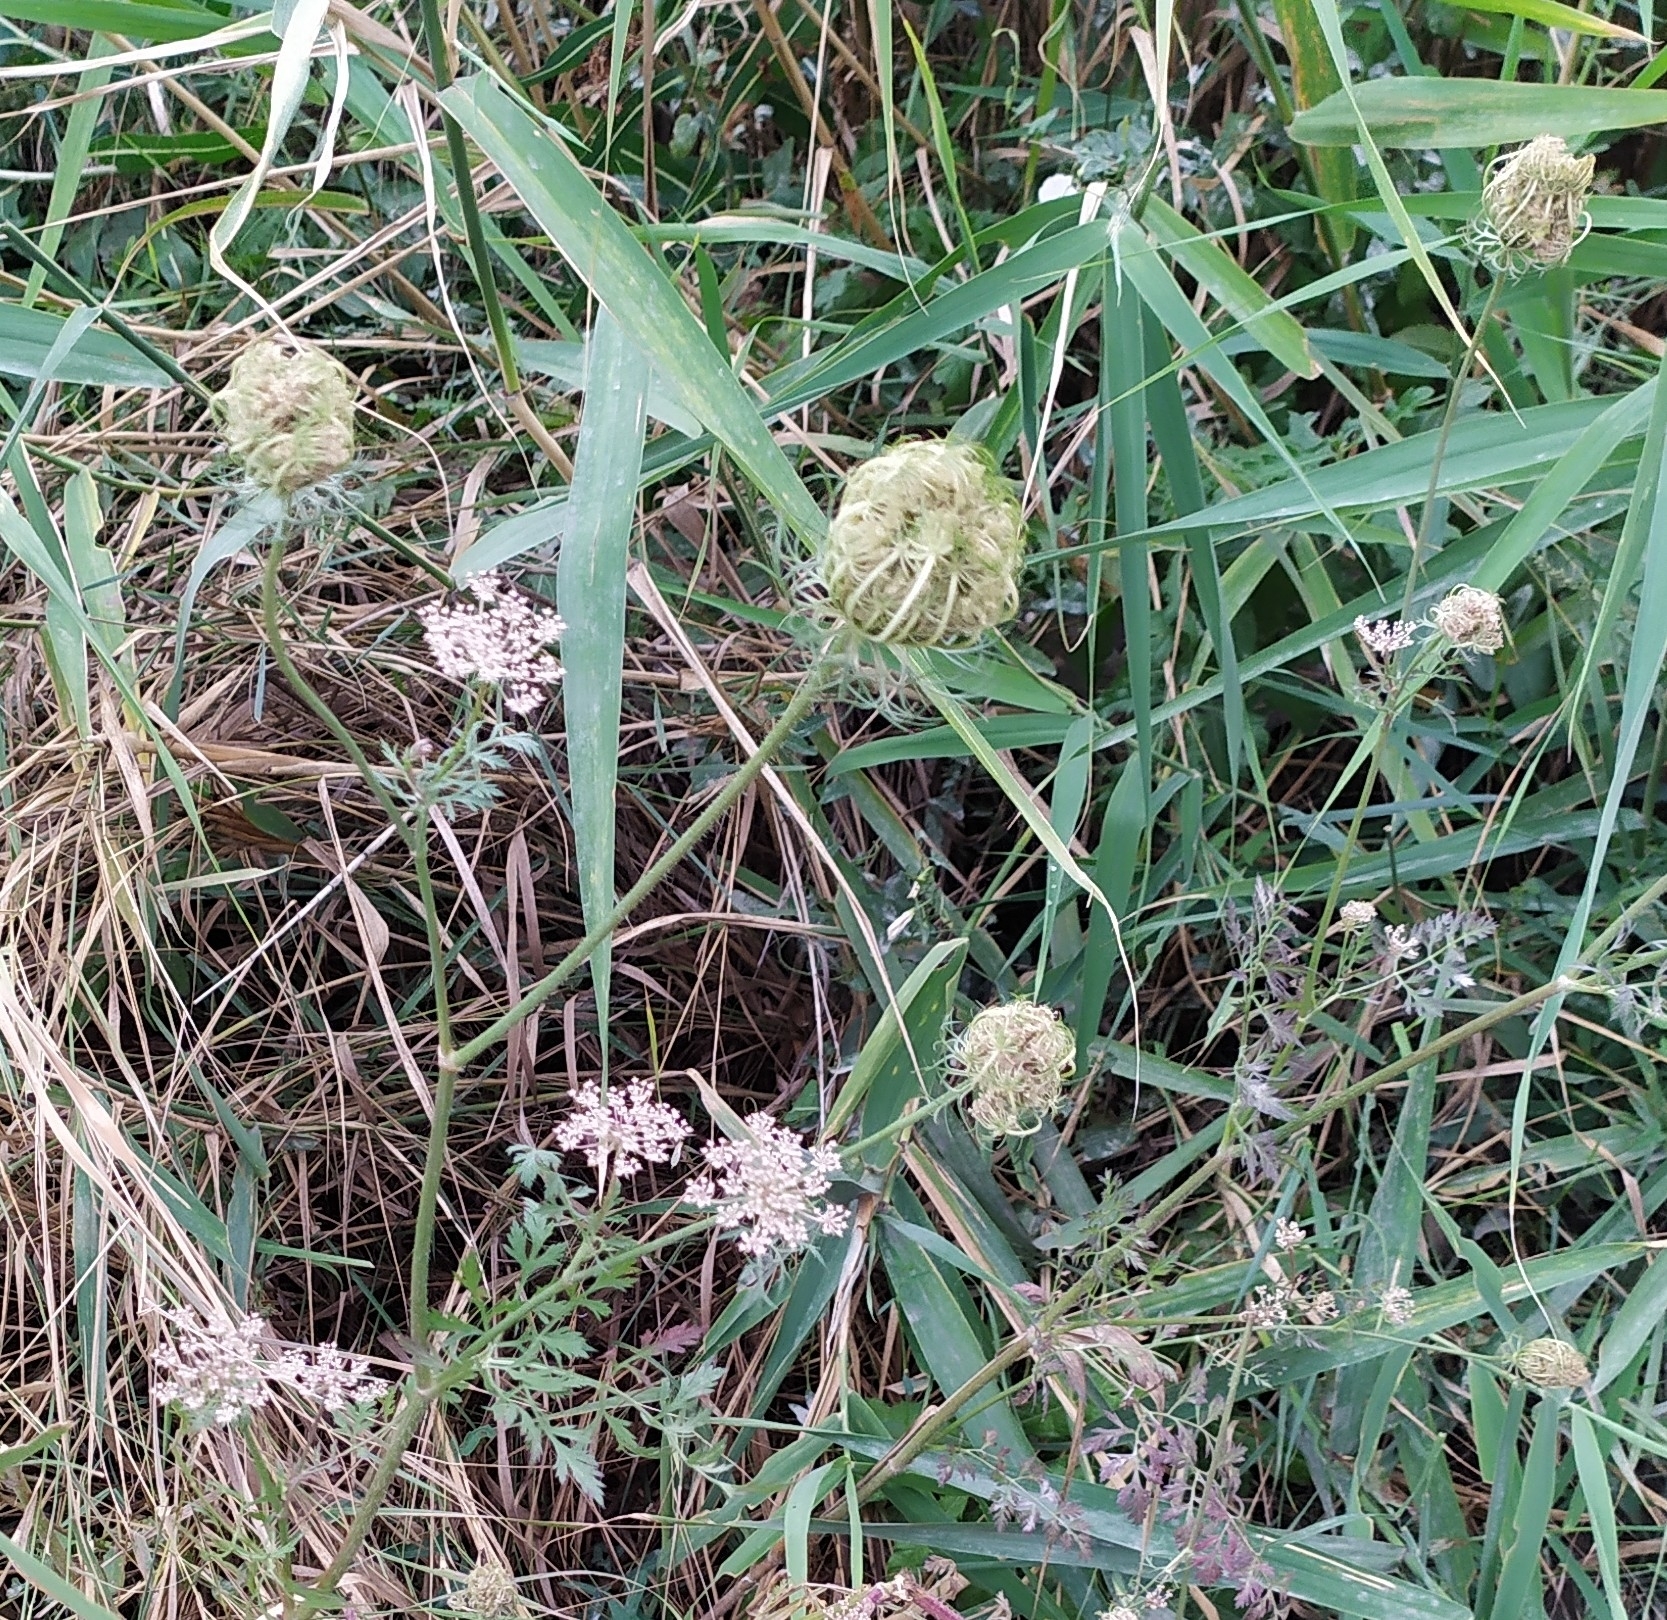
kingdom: Plantae
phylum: Tracheophyta
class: Magnoliopsida
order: Apiales
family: Apiaceae
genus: Daucus
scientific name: Daucus carota
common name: Wild carrot
